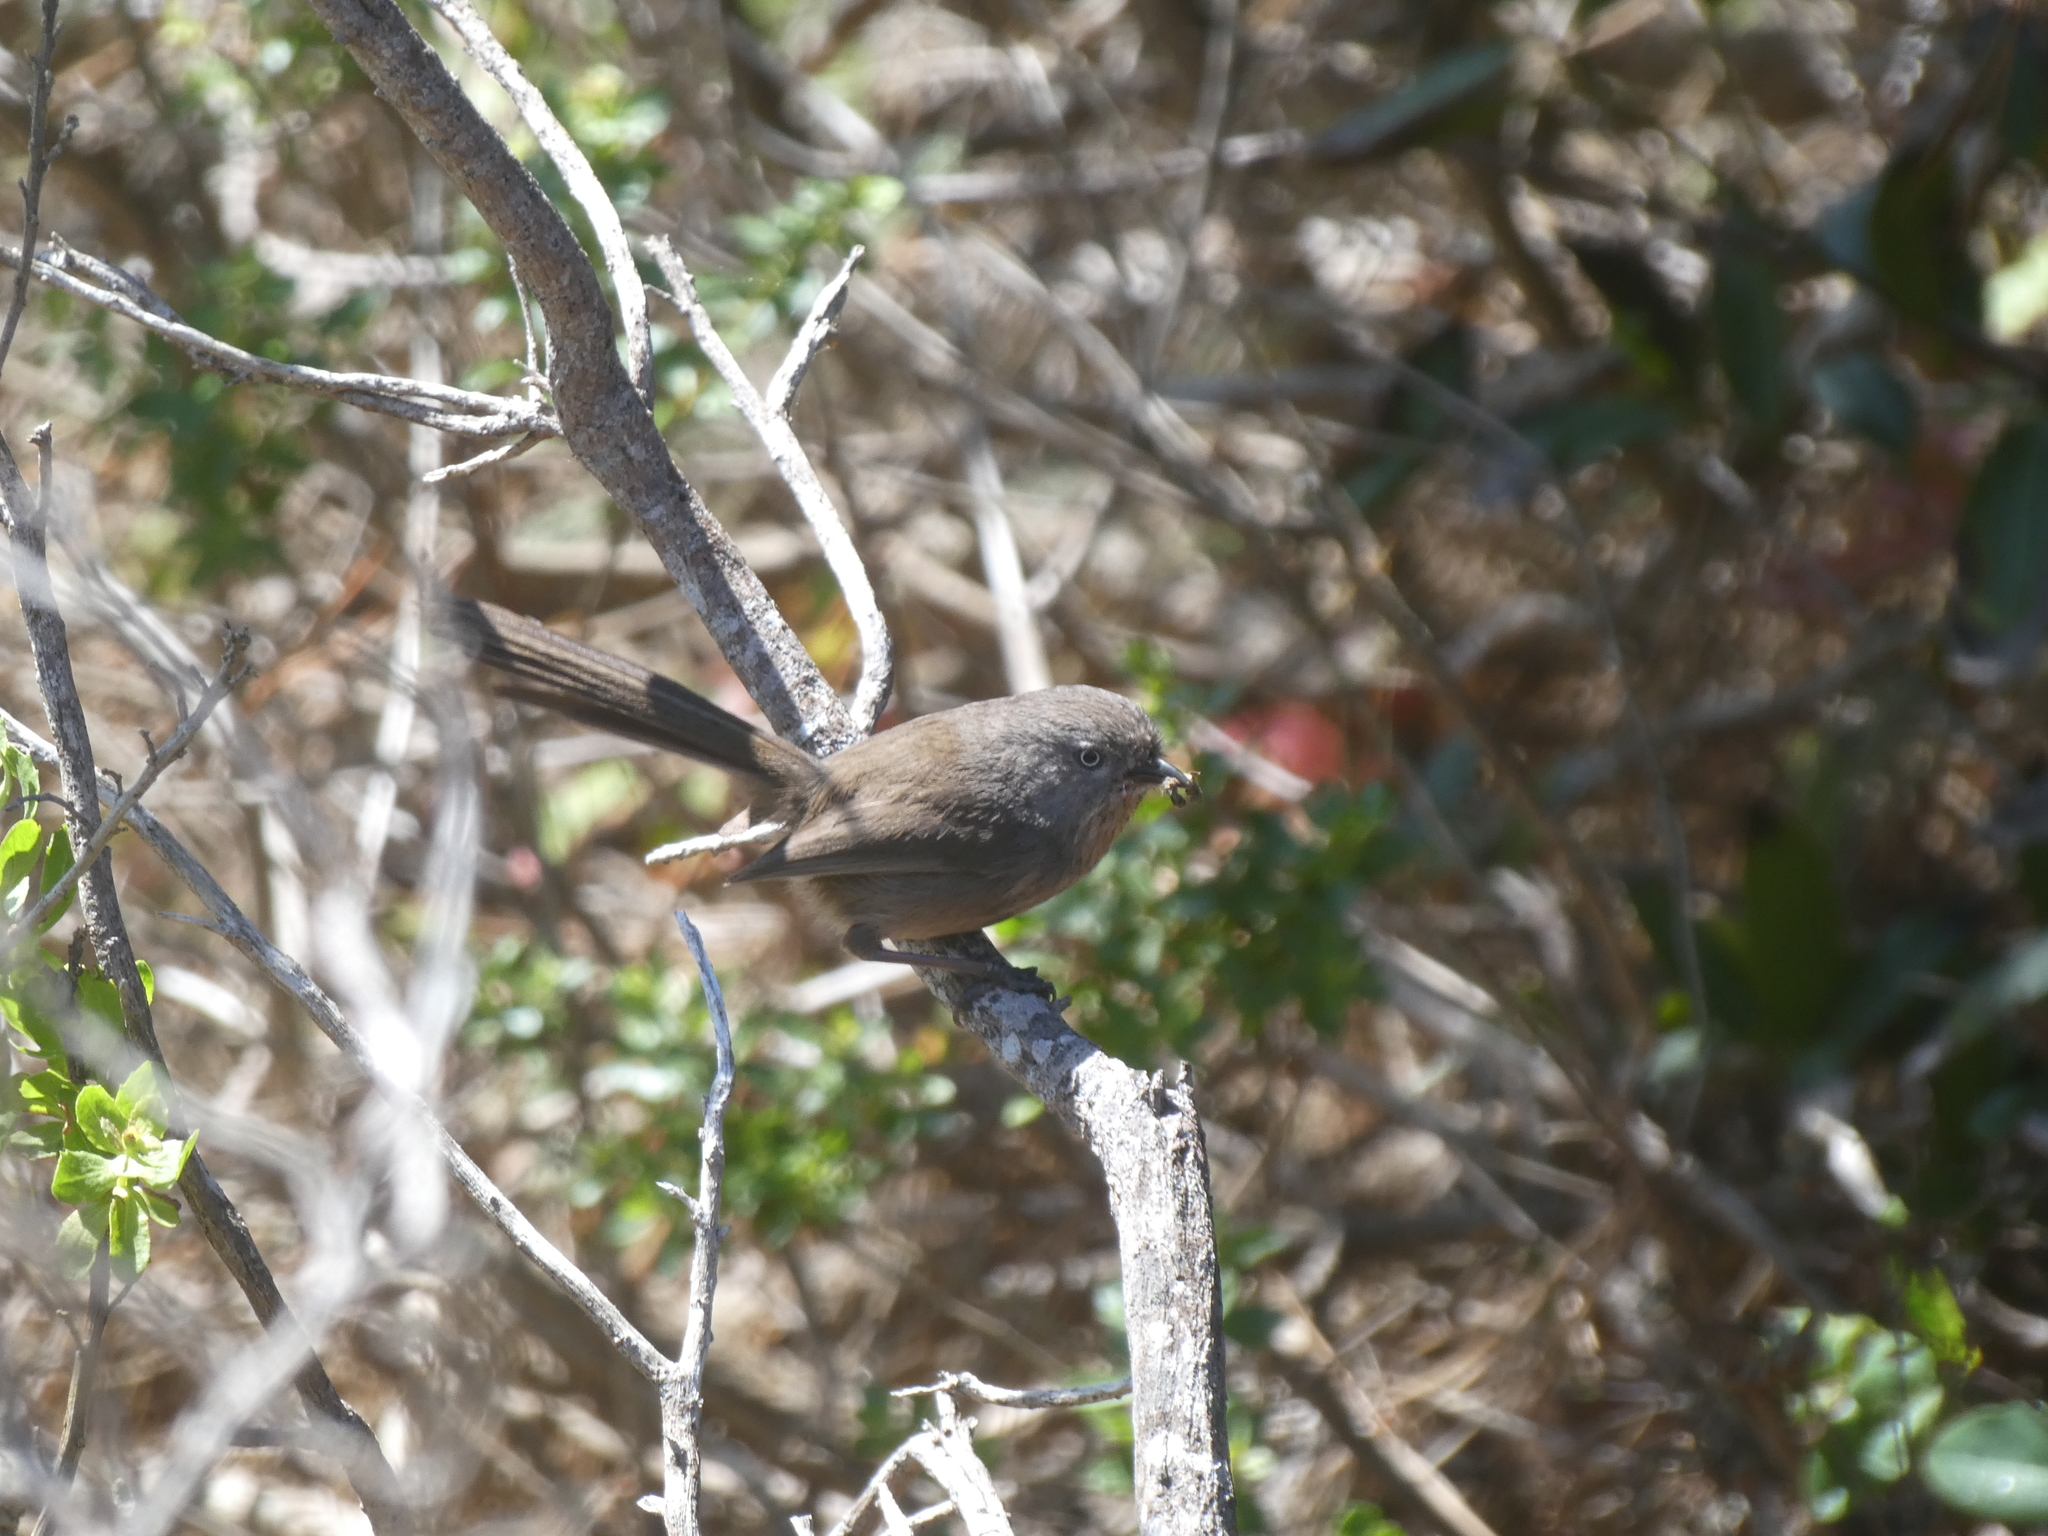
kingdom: Animalia
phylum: Chordata
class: Aves
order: Passeriformes
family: Sylviidae
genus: Chamaea
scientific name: Chamaea fasciata
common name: Wrentit
